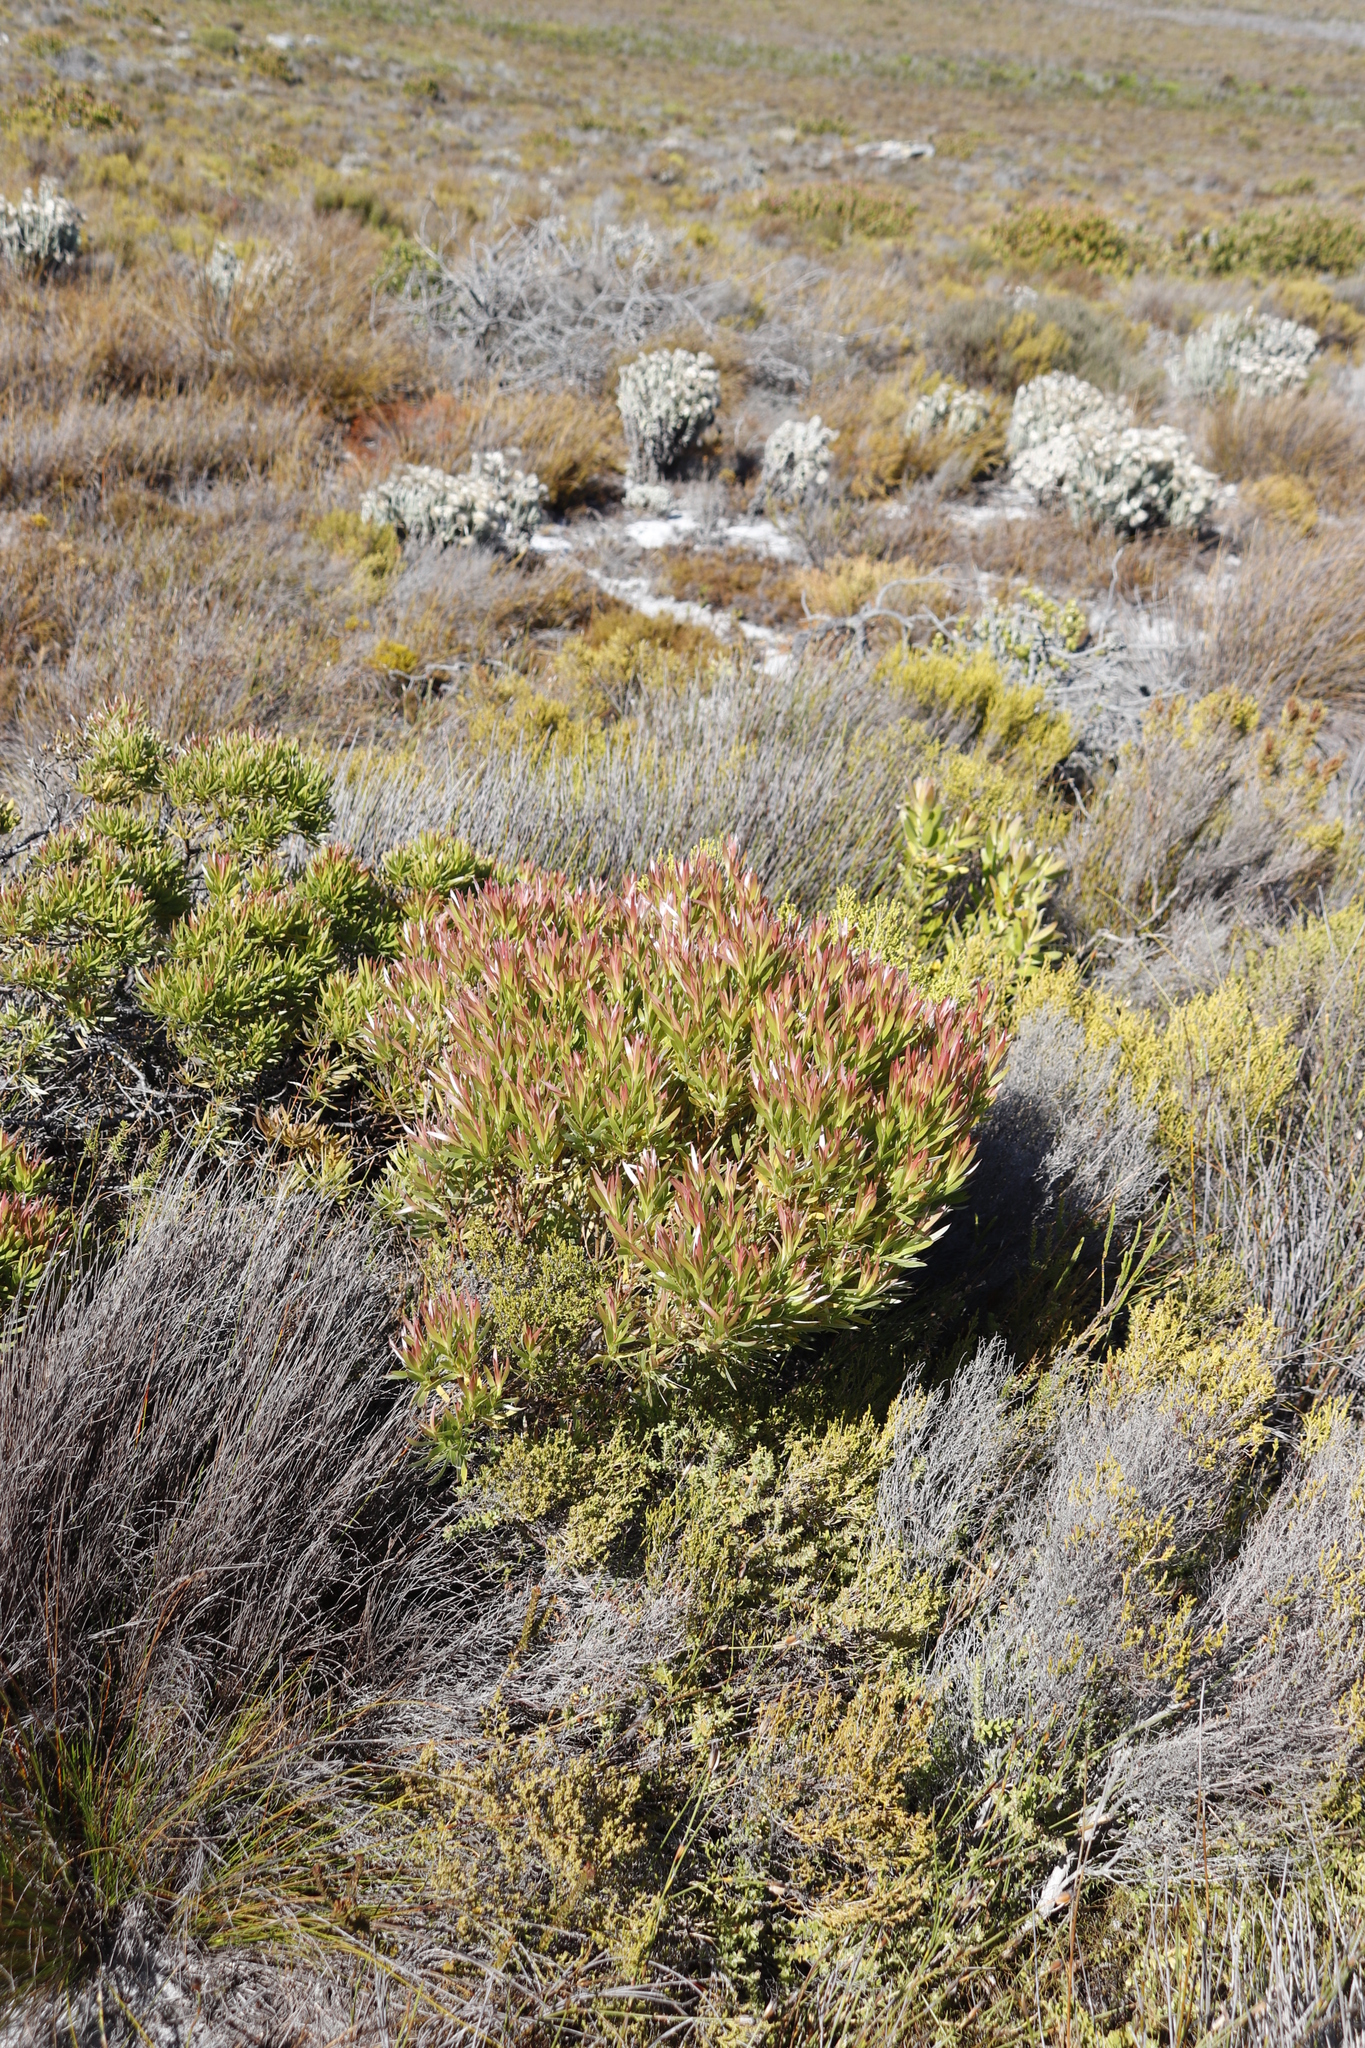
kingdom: Plantae
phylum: Tracheophyta
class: Magnoliopsida
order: Proteales
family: Proteaceae
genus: Leucadendron
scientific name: Leucadendron xanthoconus
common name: Sickle-leaf conebush
